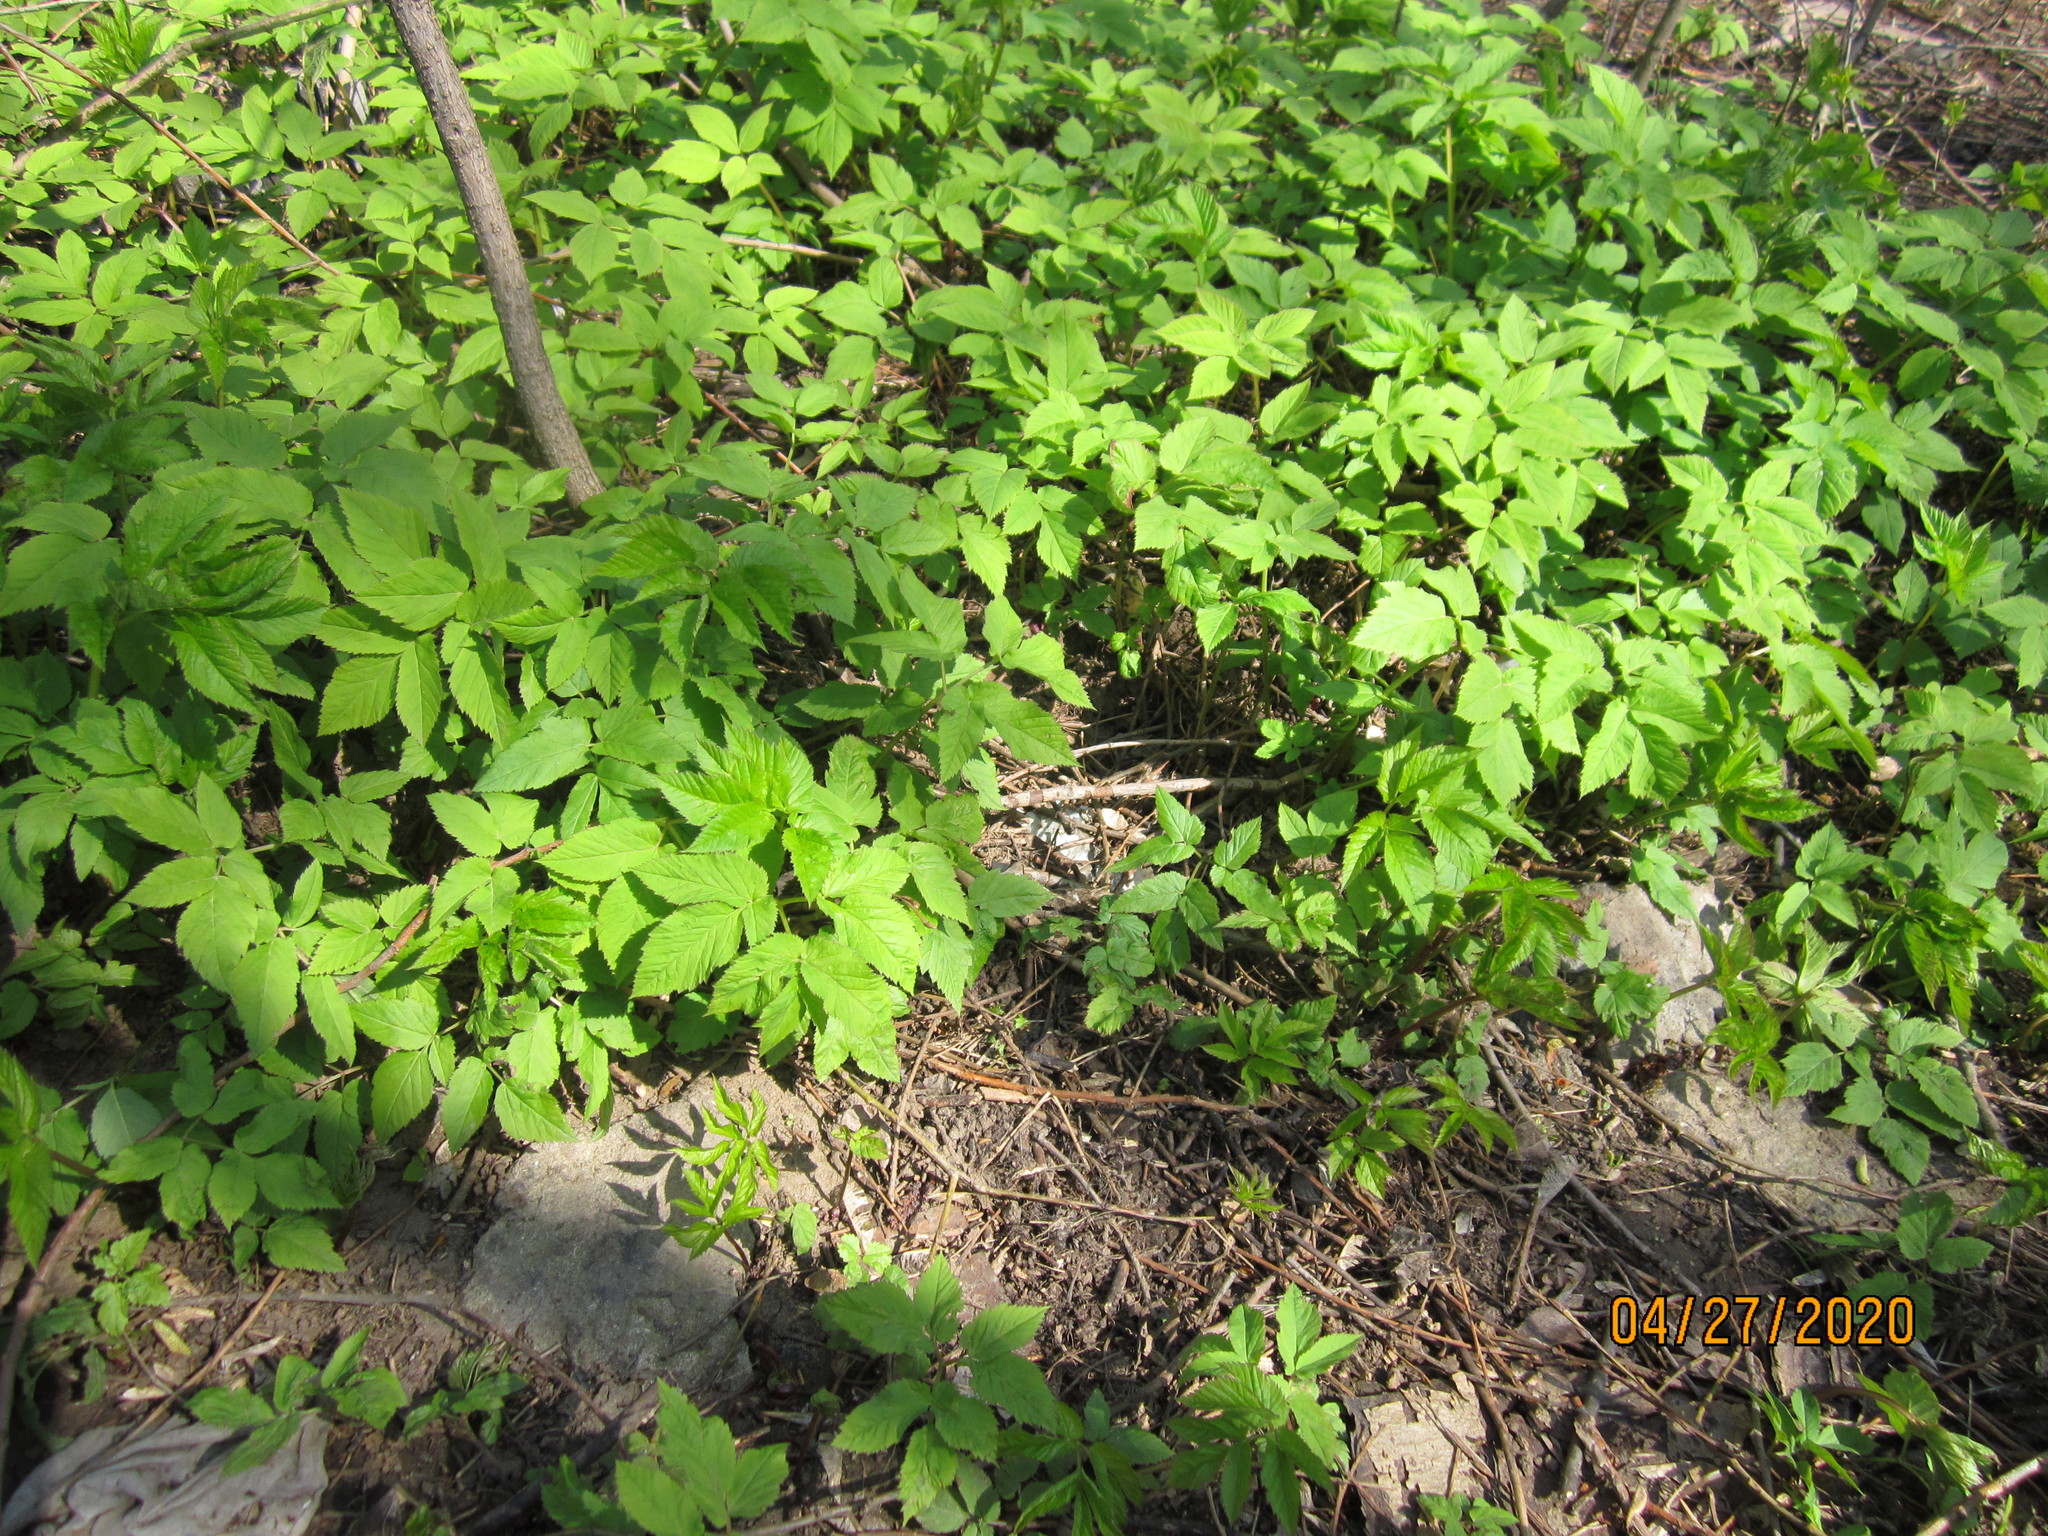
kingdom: Plantae
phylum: Tracheophyta
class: Magnoliopsida
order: Apiales
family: Apiaceae
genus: Aegopodium
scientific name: Aegopodium podagraria
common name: Ground-elder
